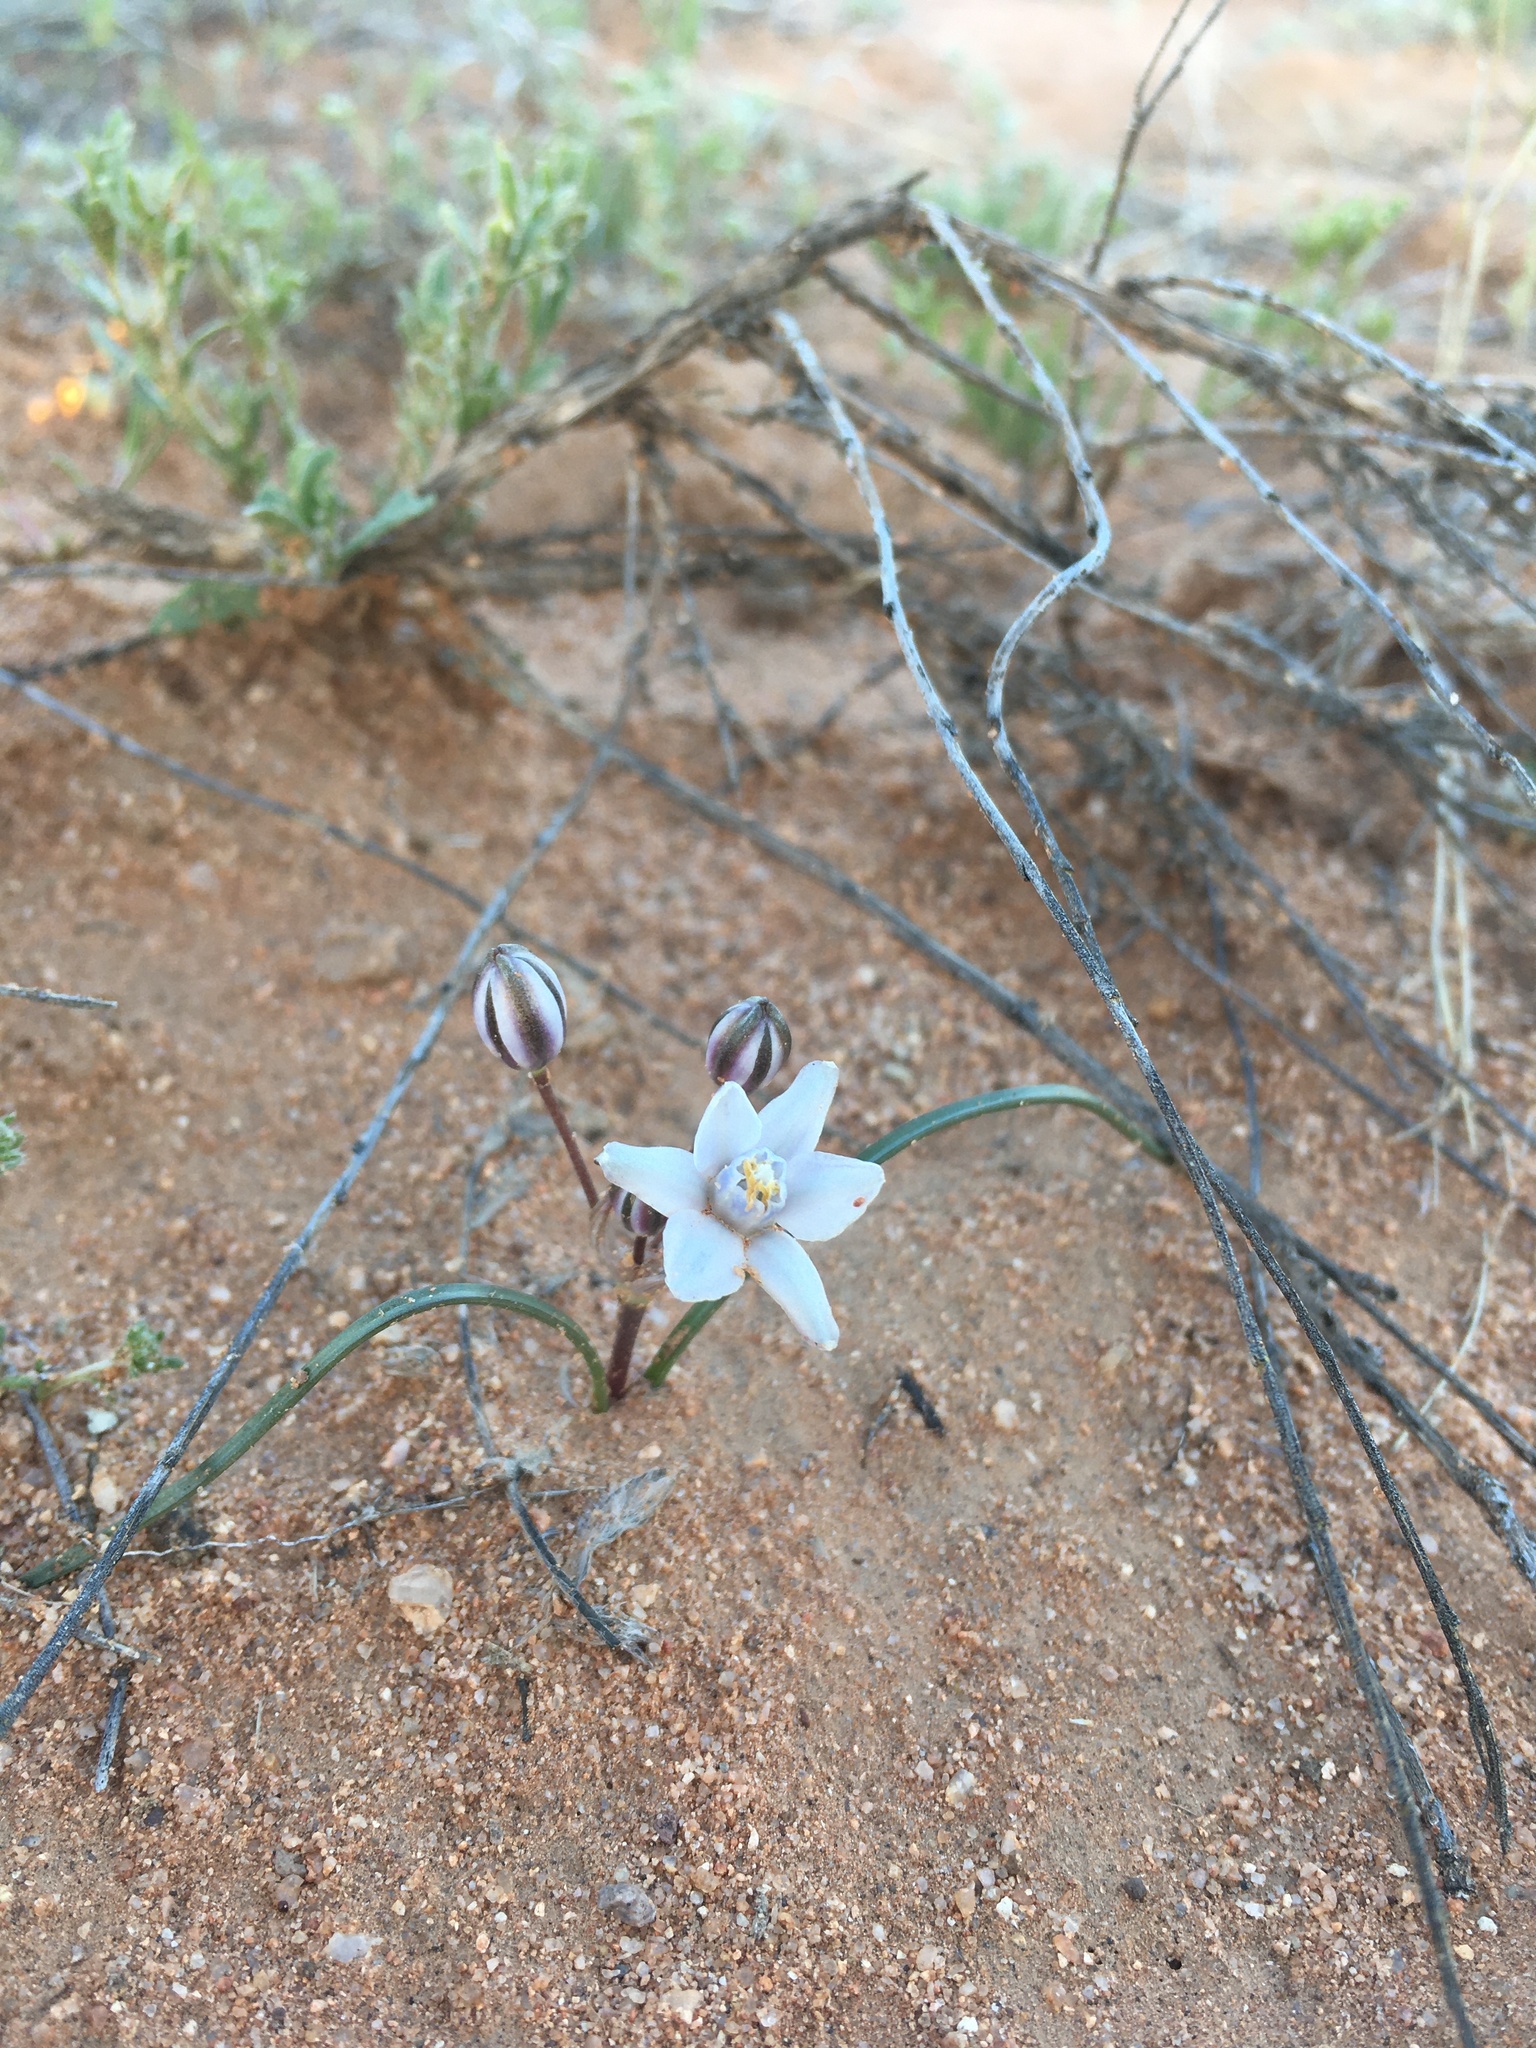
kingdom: Plantae
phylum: Tracheophyta
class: Liliopsida
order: Asparagales
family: Asparagaceae
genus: Muilla
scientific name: Muilla lordsburgana
